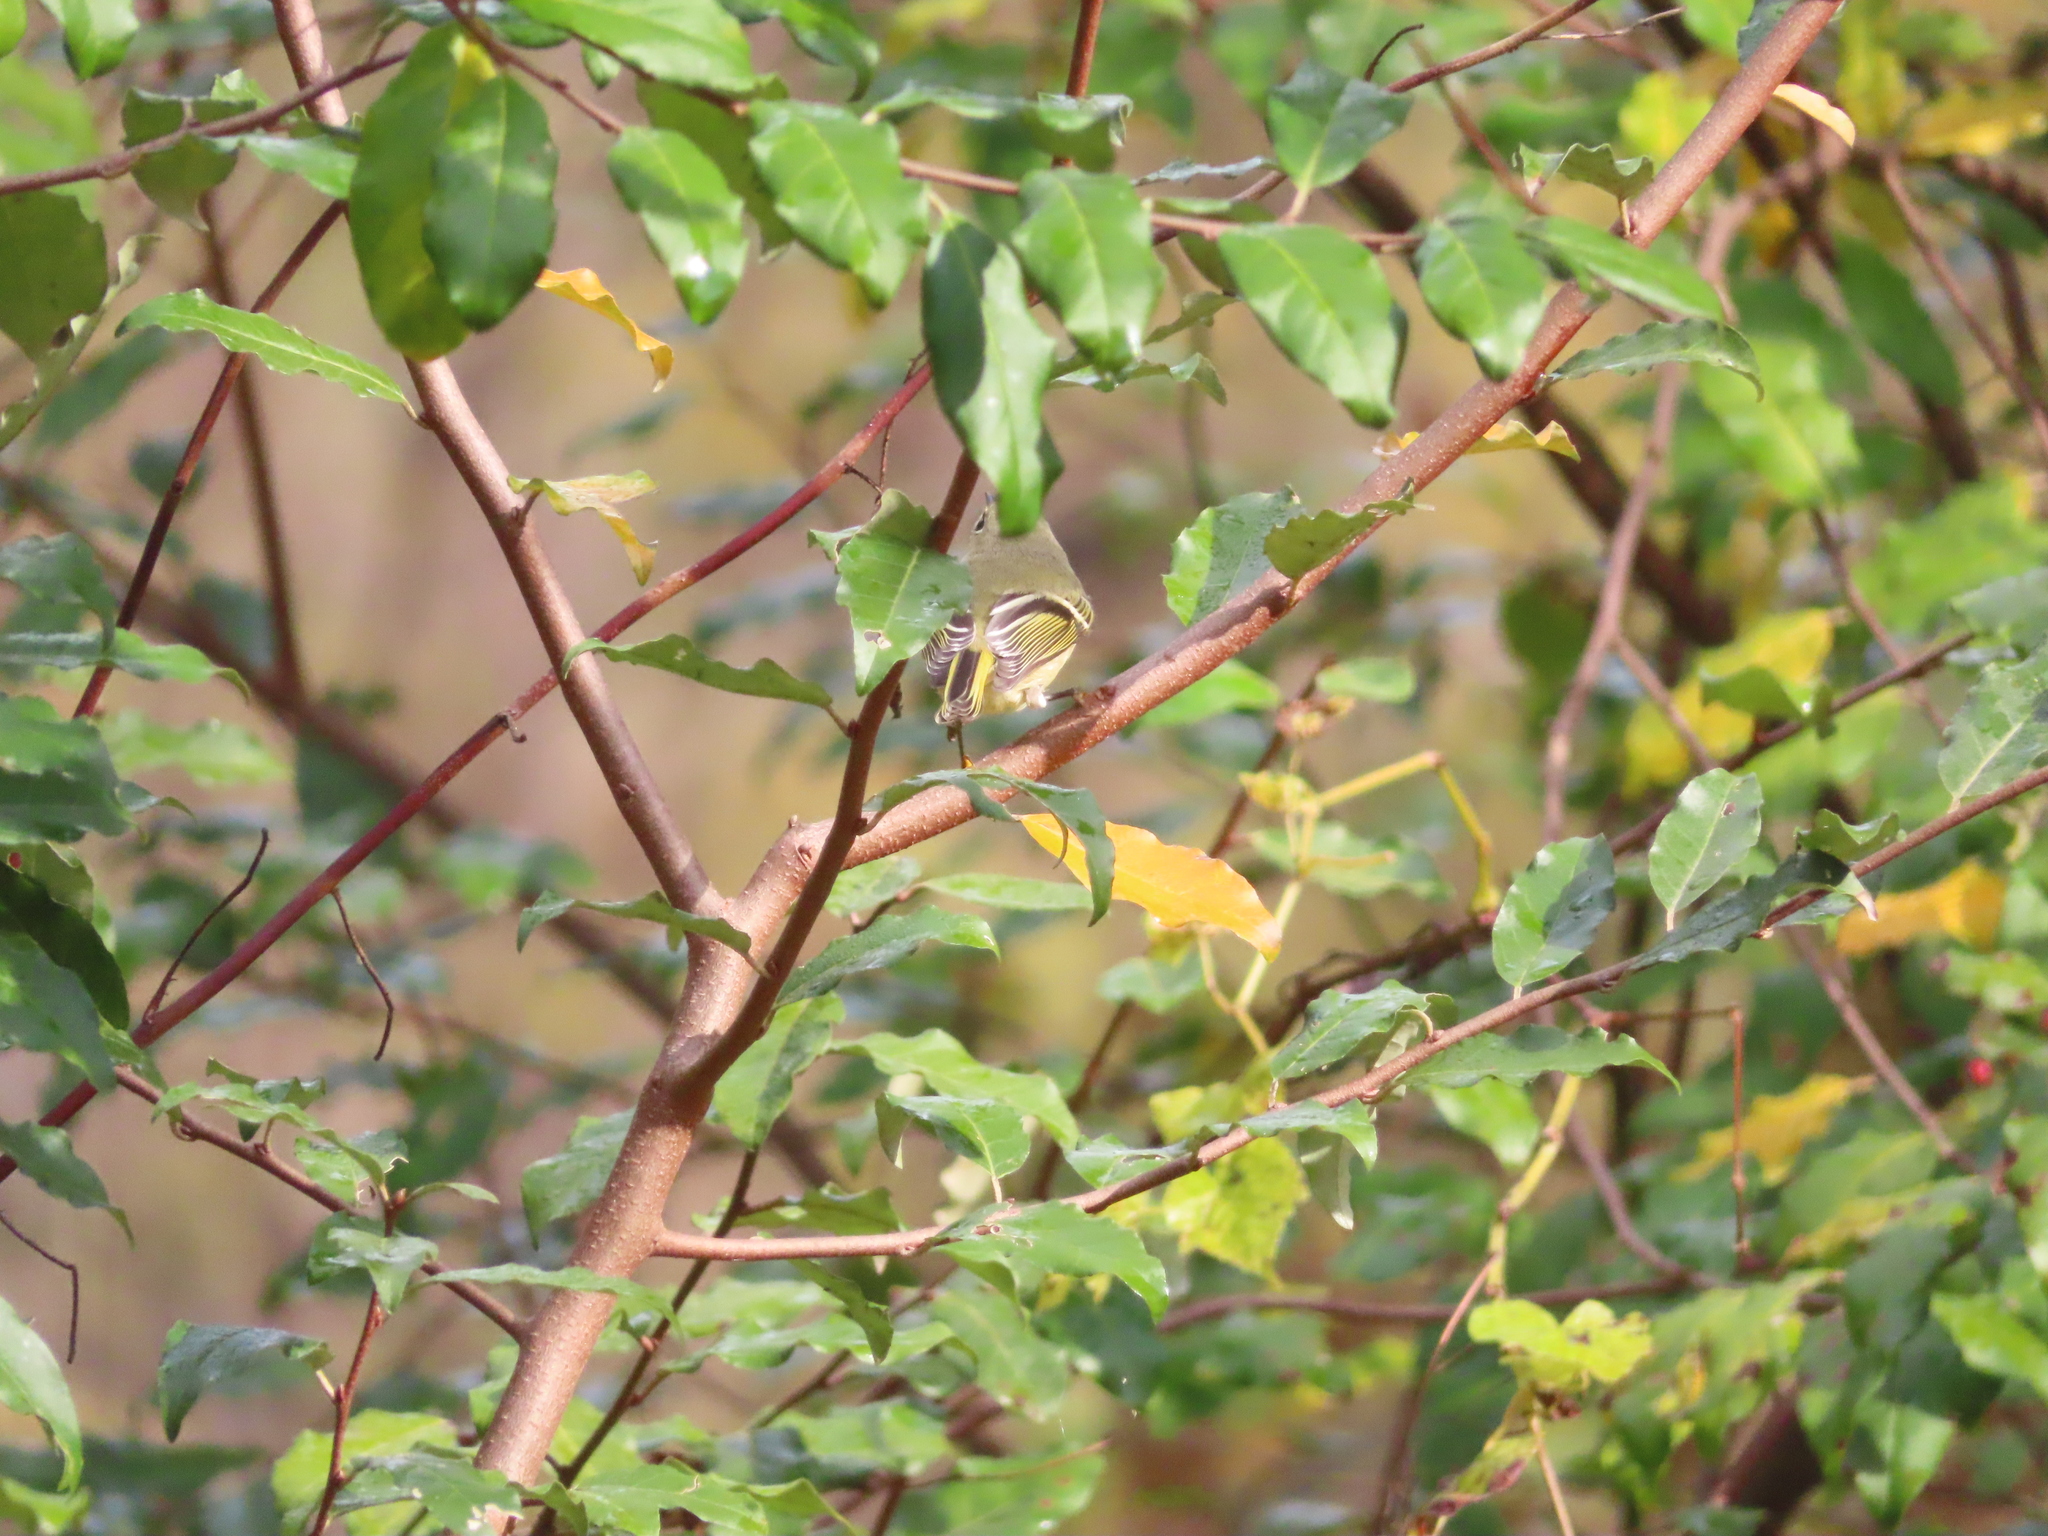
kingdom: Plantae
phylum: Tracheophyta
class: Magnoliopsida
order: Rosales
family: Elaeagnaceae
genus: Elaeagnus
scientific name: Elaeagnus umbellata
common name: Autumn olive
